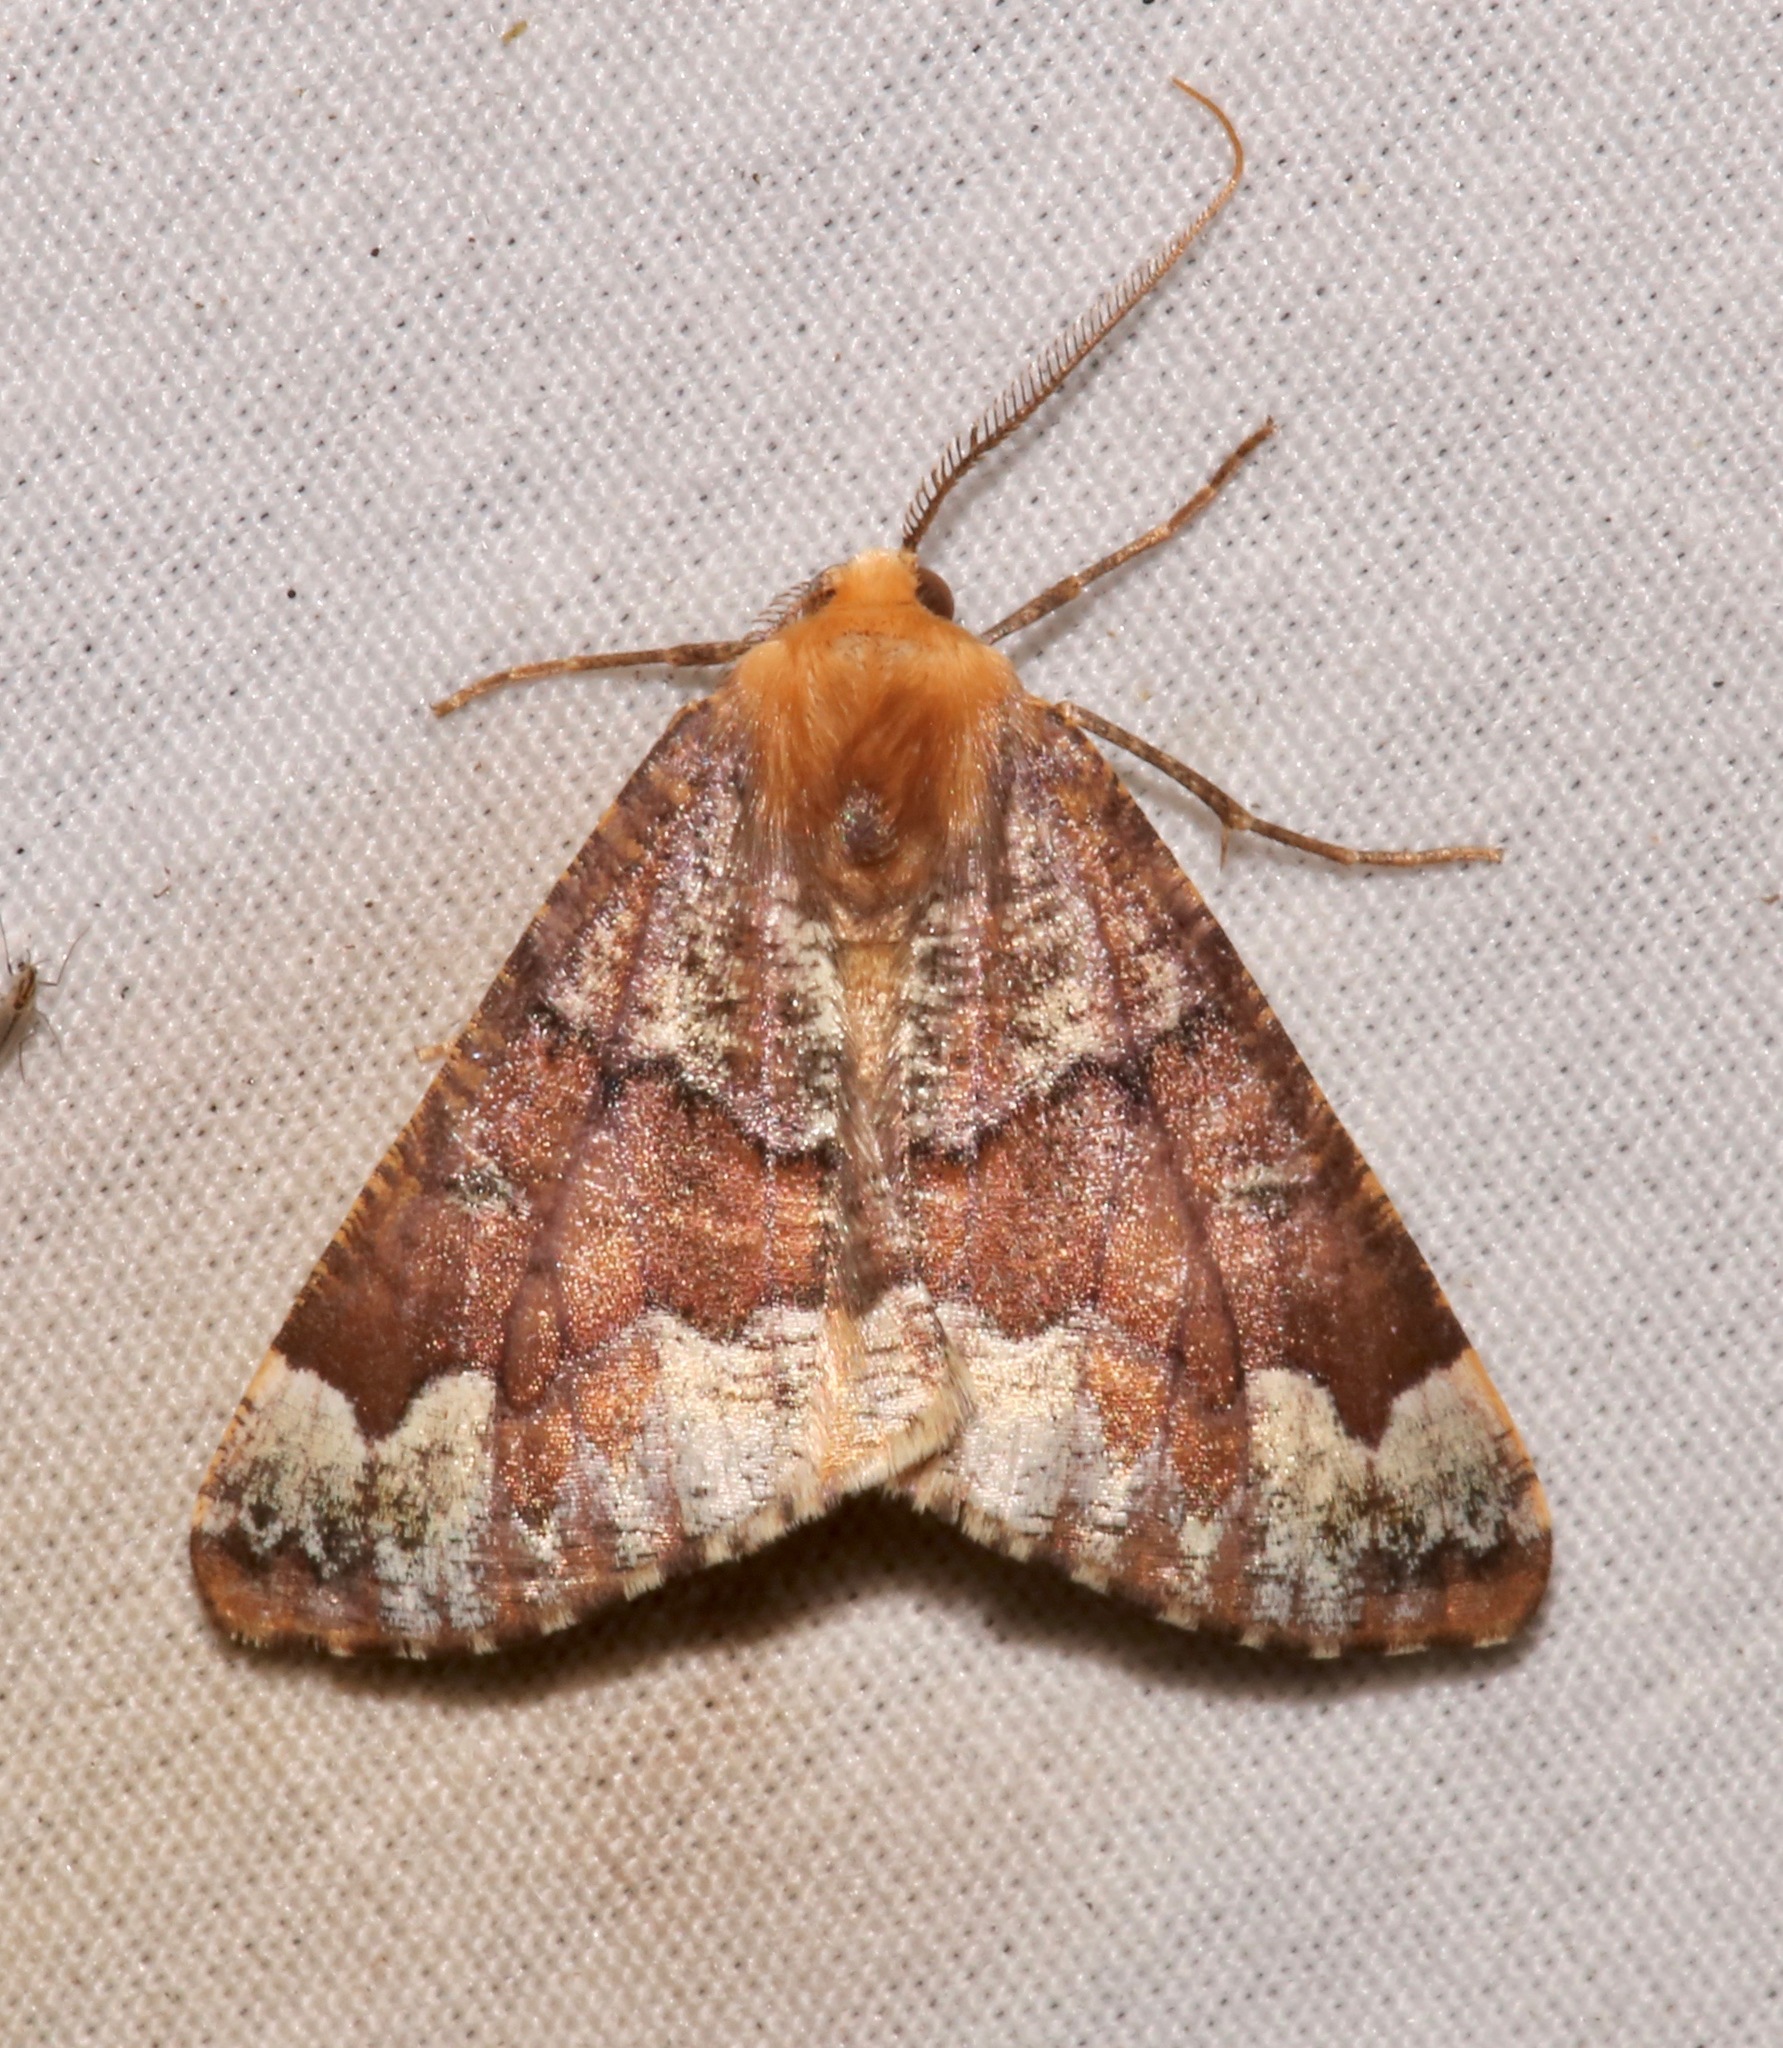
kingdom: Animalia
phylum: Arthropoda
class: Insecta
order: Lepidoptera
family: Geometridae
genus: Caripeta
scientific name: Caripeta pulcherrima
